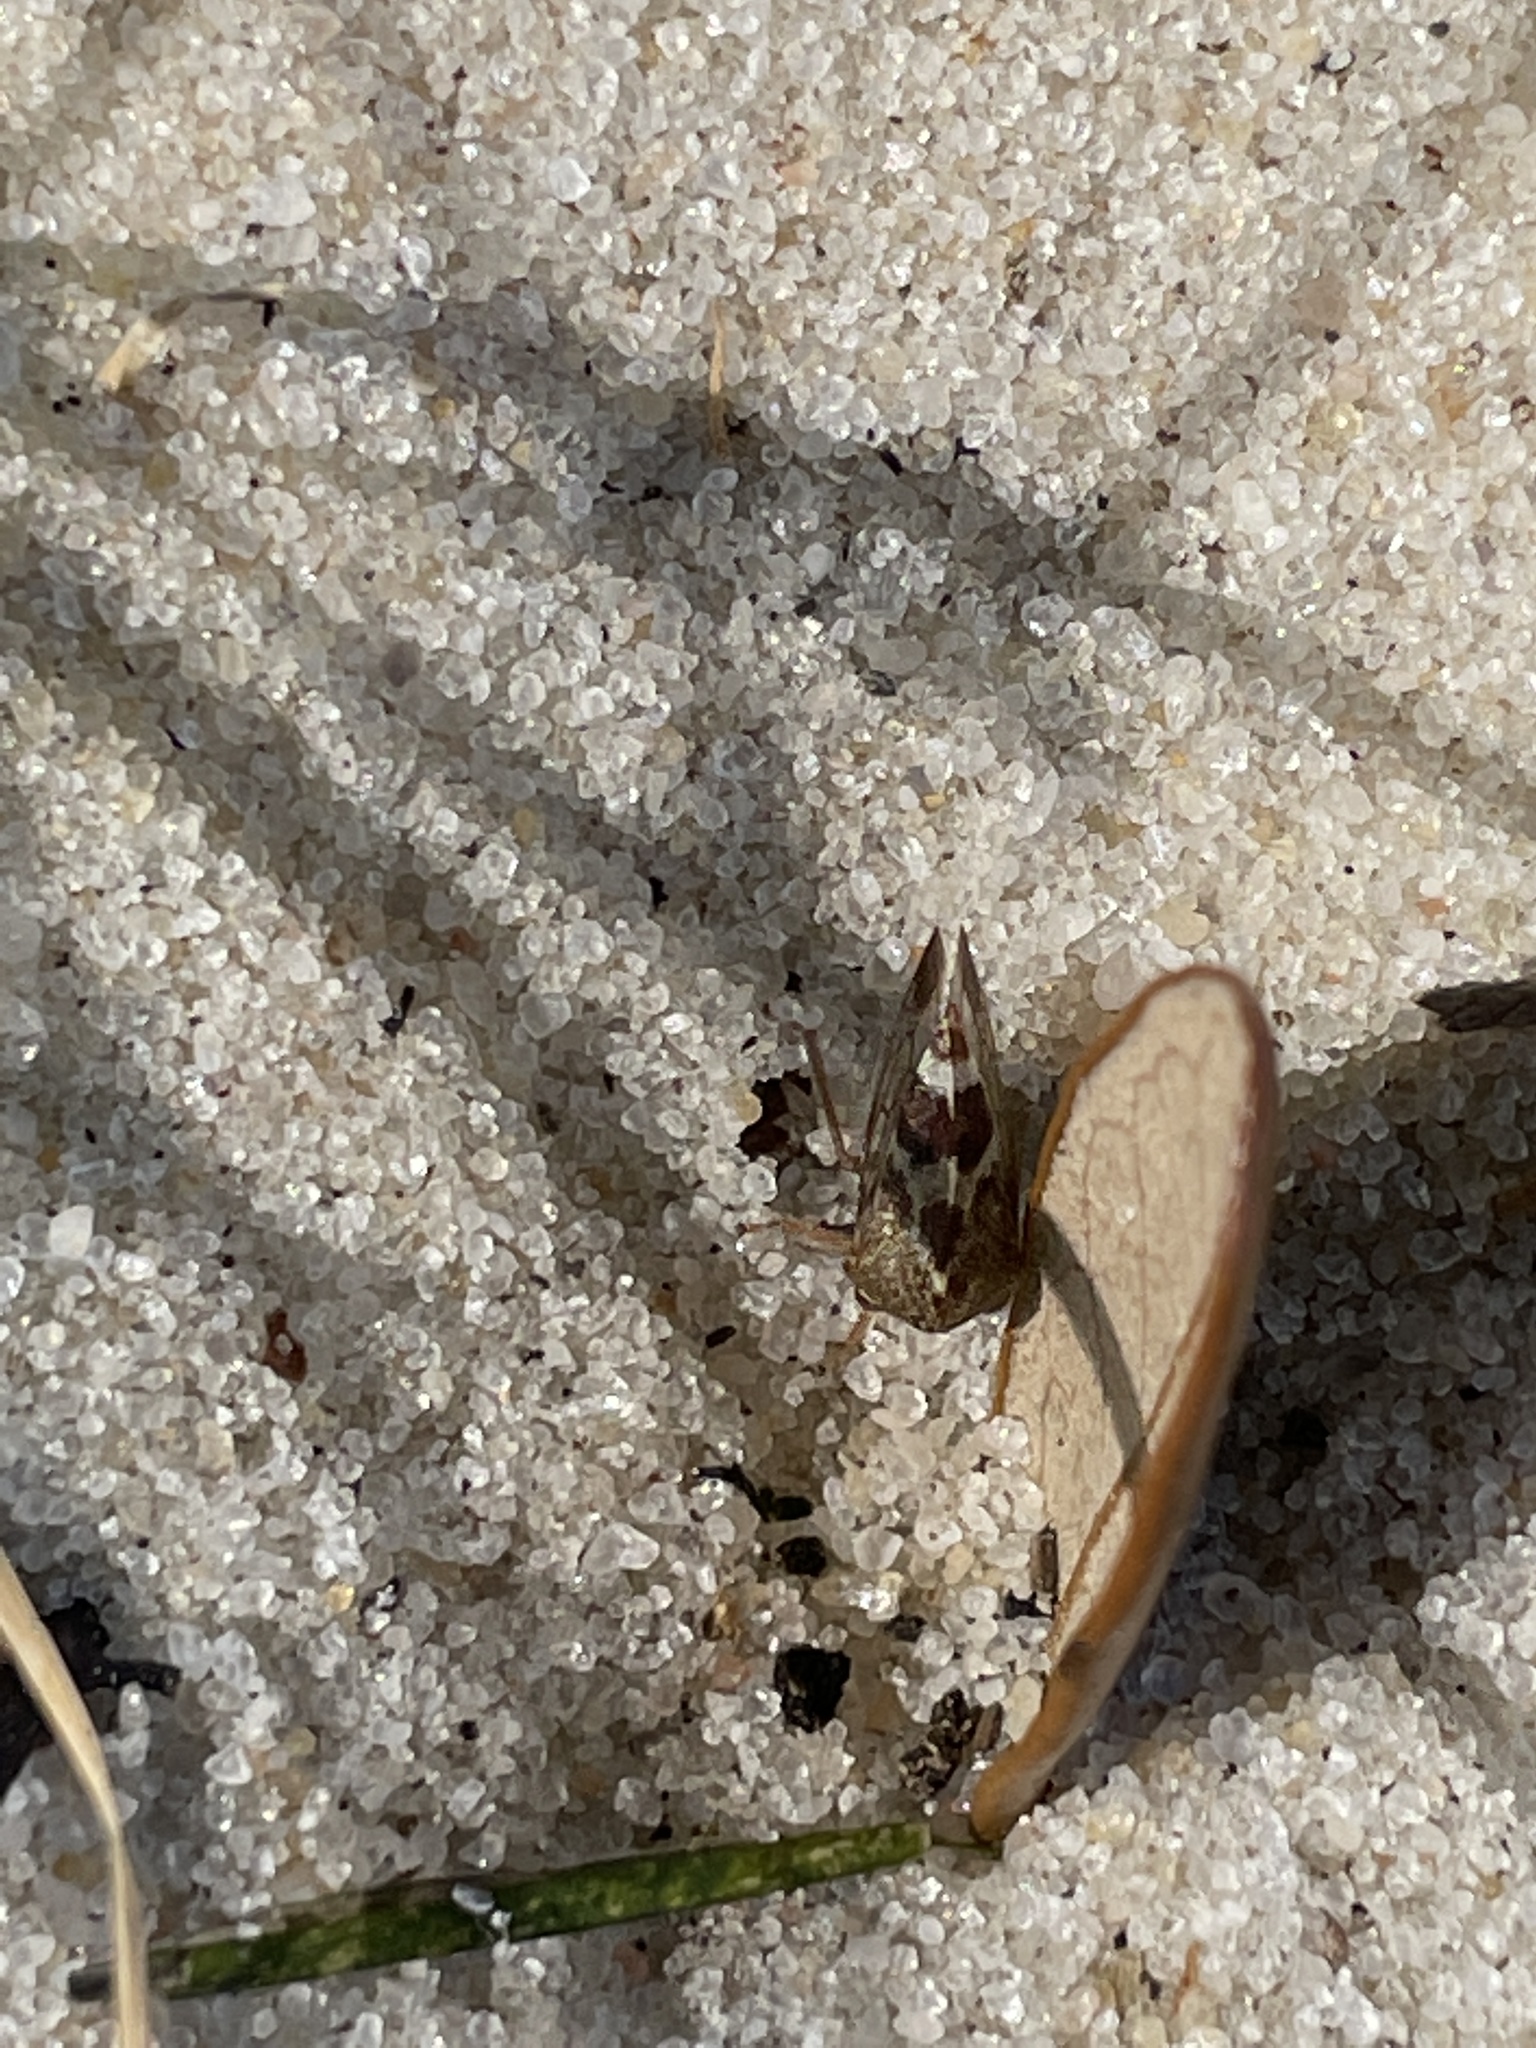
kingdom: Animalia
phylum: Arthropoda
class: Insecta
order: Hemiptera
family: Membracidae
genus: Cyrtolobus
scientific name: Cyrtolobus tuberosa
